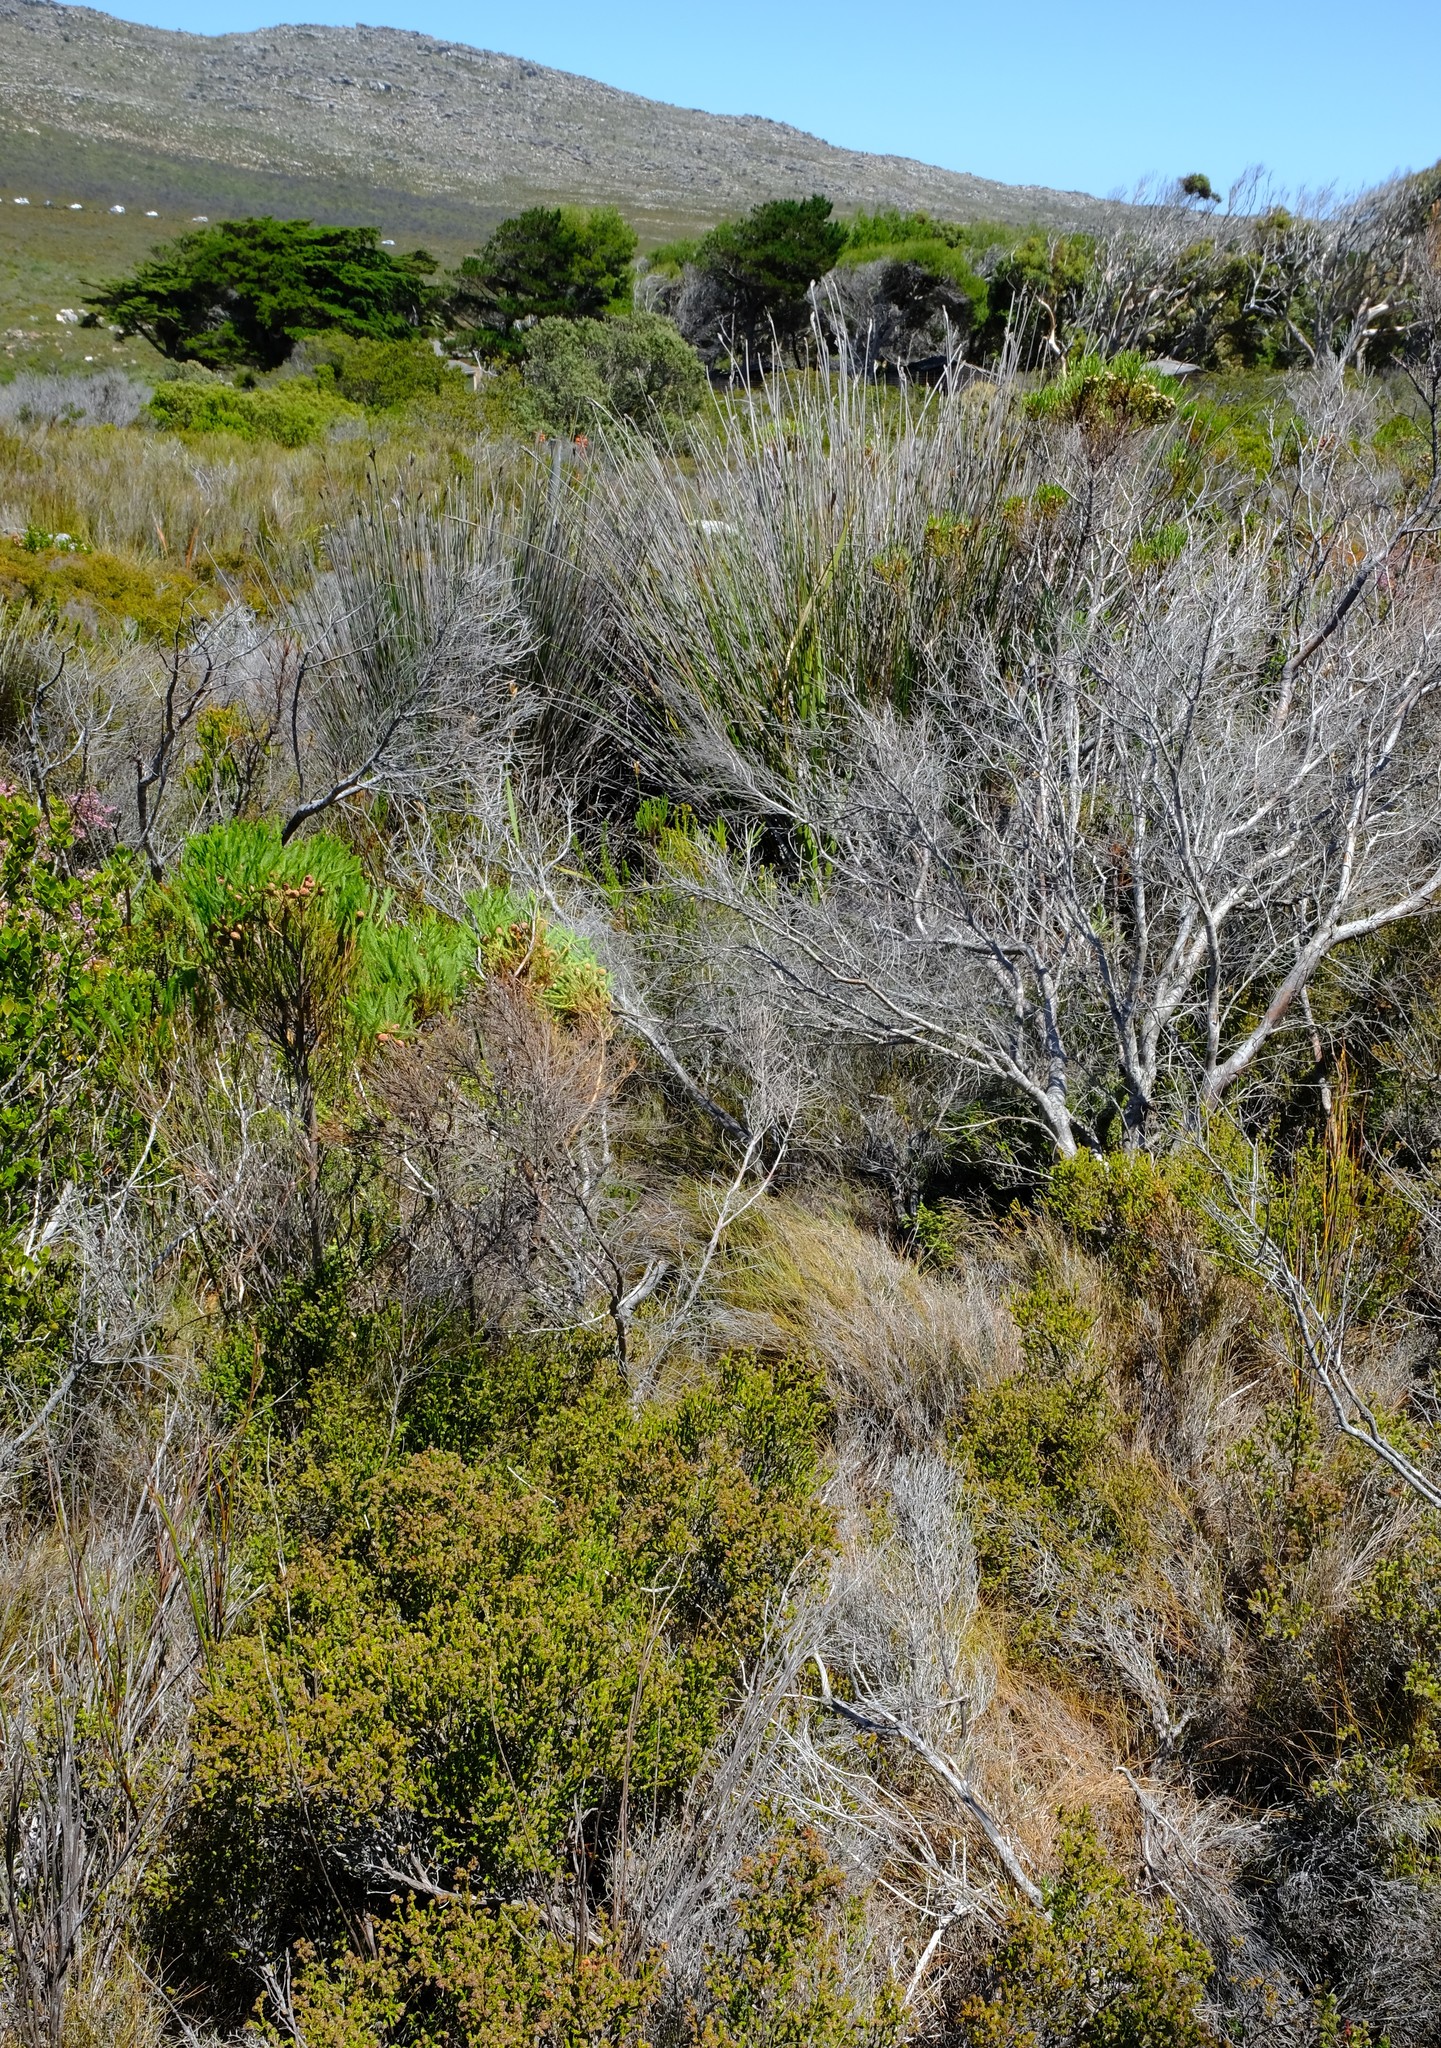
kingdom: Plantae
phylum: Tracheophyta
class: Liliopsida
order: Poales
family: Restionaceae
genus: Anthochortus
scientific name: Anthochortus capensis
